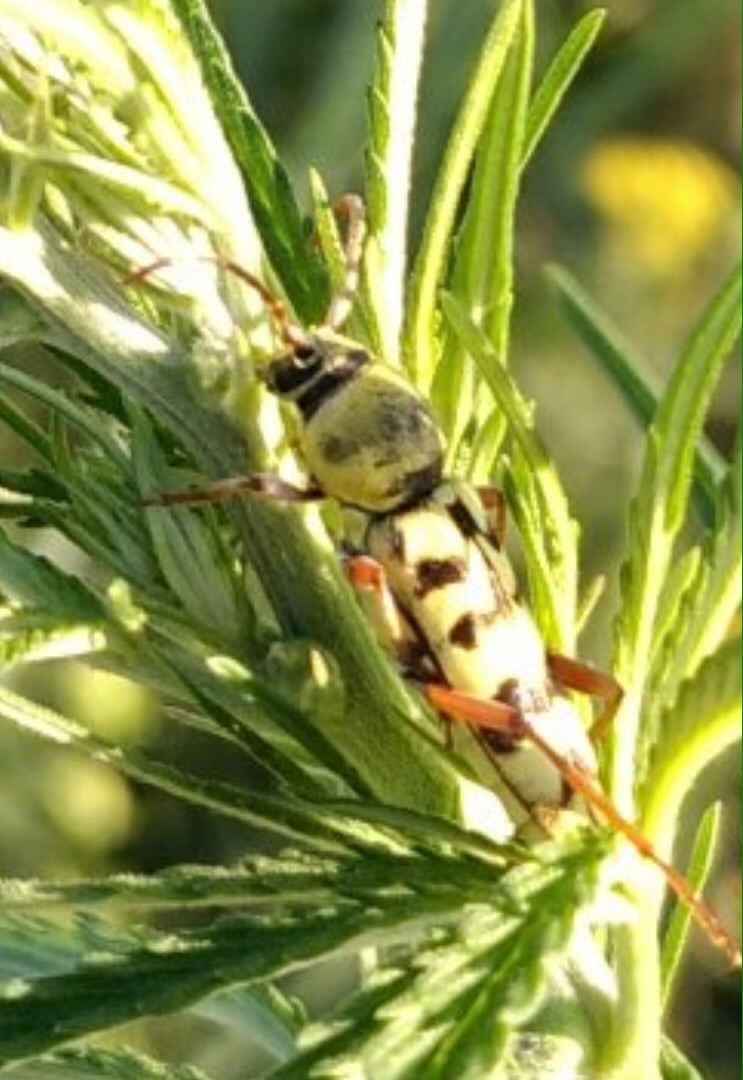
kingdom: Animalia
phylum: Arthropoda
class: Insecta
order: Coleoptera
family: Cerambycidae
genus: Plagionotus
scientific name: Plagionotus floralis
